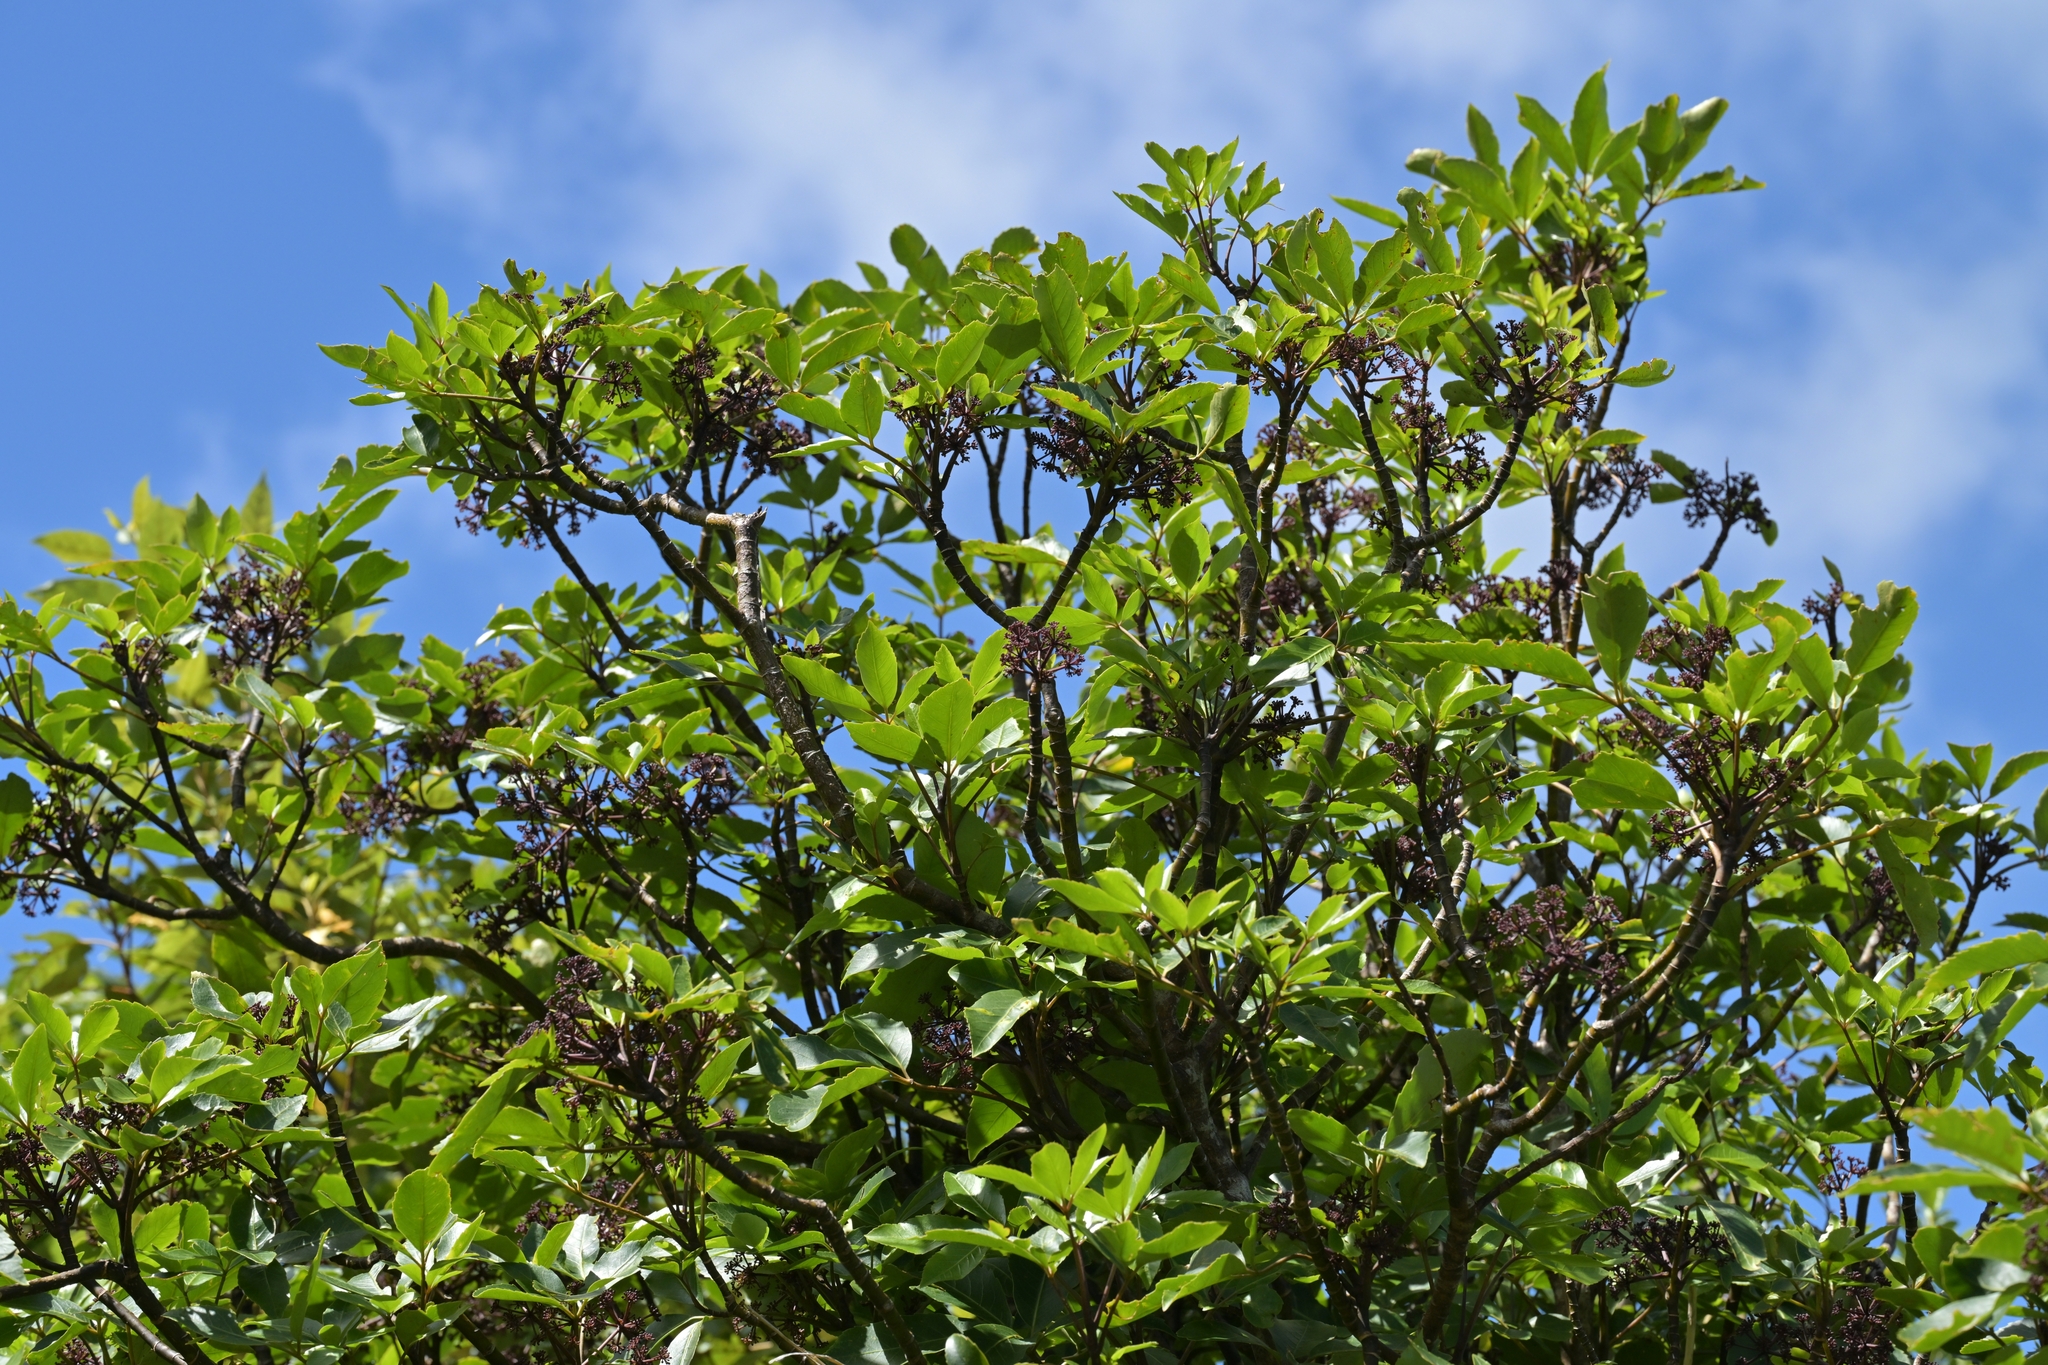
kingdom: Plantae
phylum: Tracheophyta
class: Magnoliopsida
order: Apiales
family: Araliaceae
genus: Neopanax
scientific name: Neopanax arboreus
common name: Five-fingers
